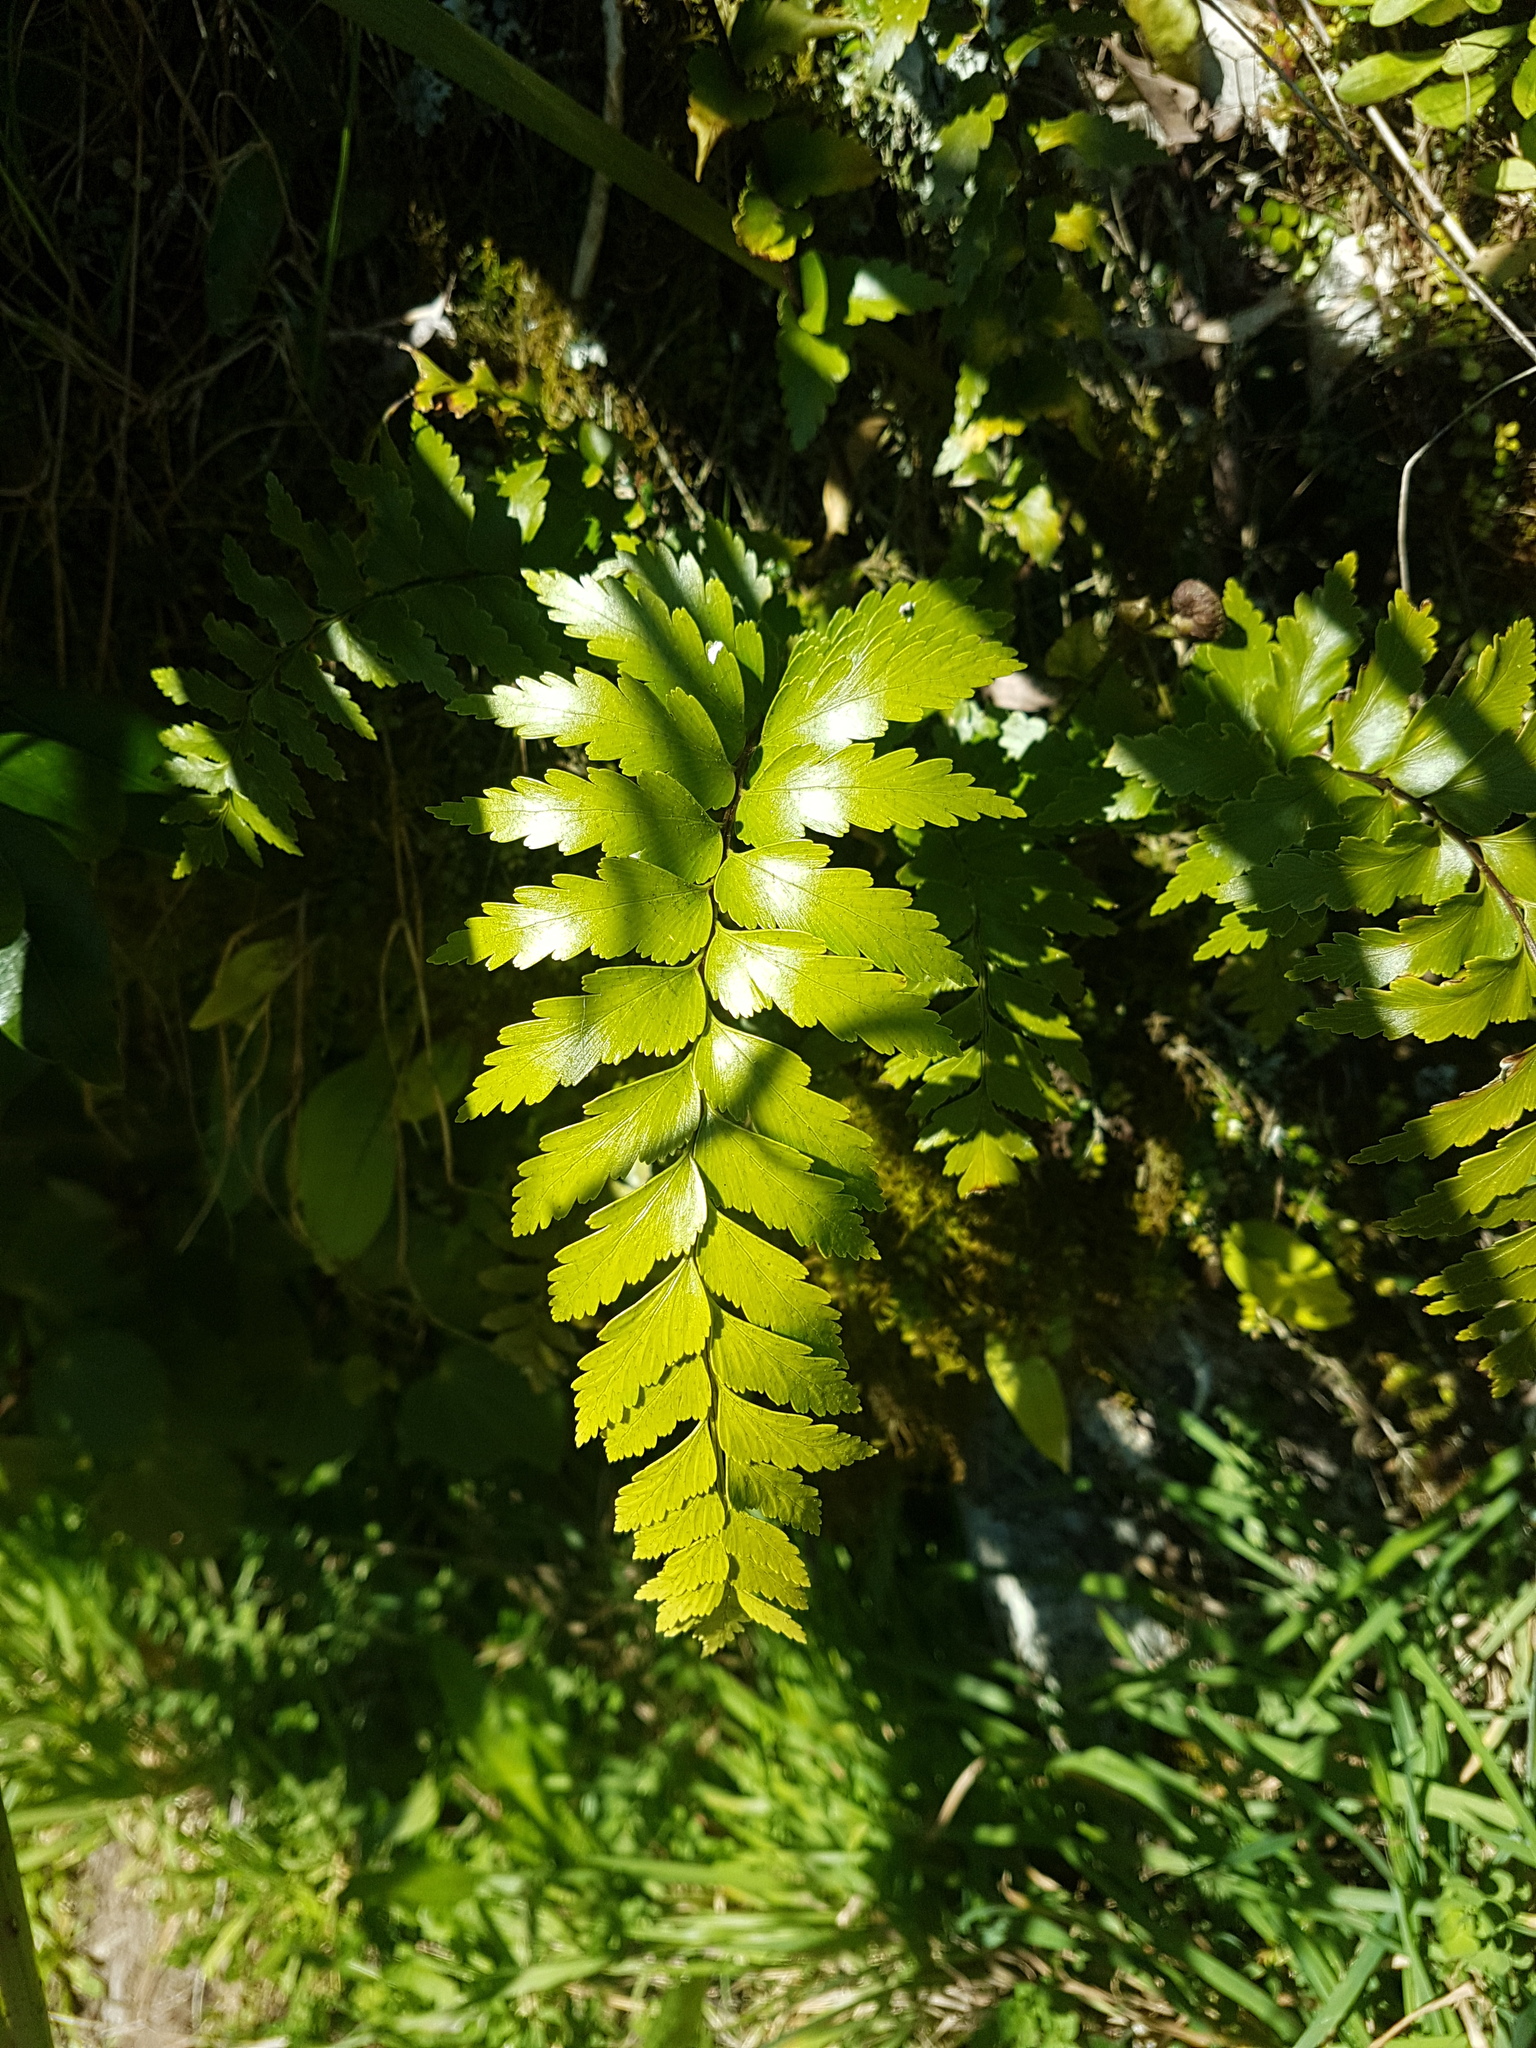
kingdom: Plantae
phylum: Tracheophyta
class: Polypodiopsida
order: Polypodiales
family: Aspleniaceae
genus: Asplenium
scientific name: Asplenium polyodon
